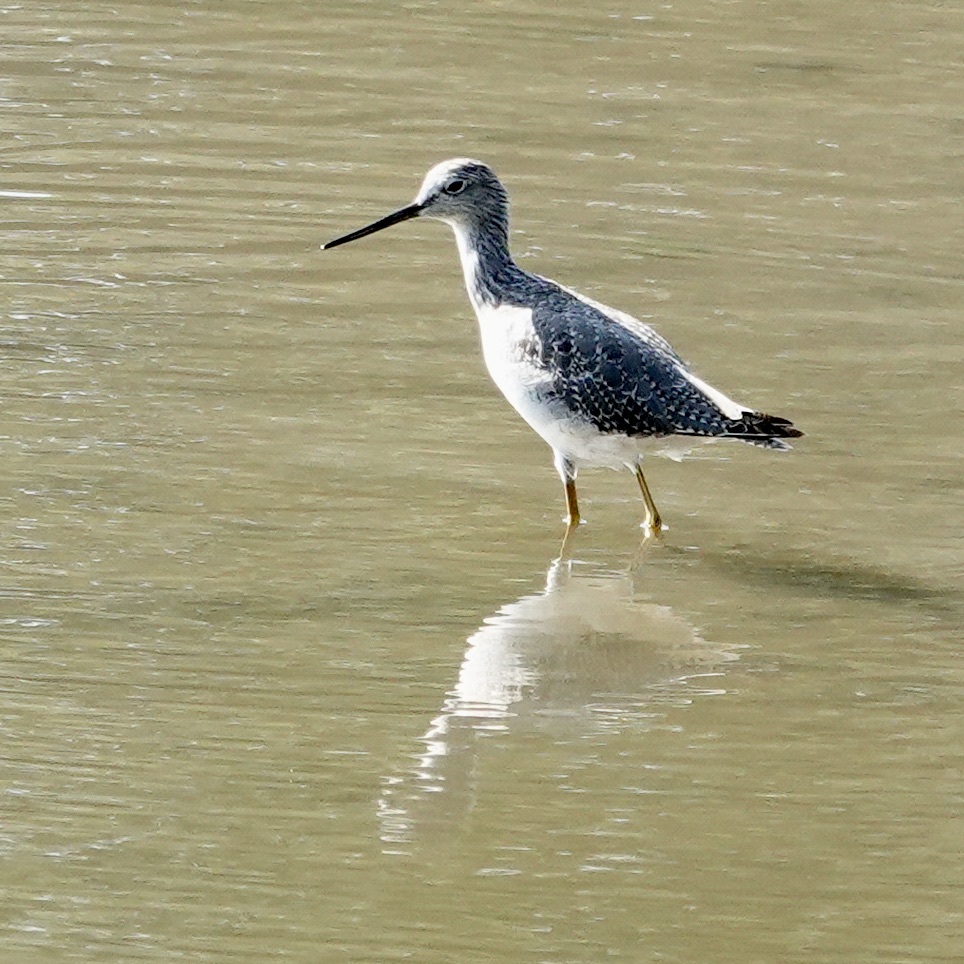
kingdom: Animalia
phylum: Chordata
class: Aves
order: Charadriiformes
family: Scolopacidae
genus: Tringa
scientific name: Tringa melanoleuca
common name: Greater yellowlegs
